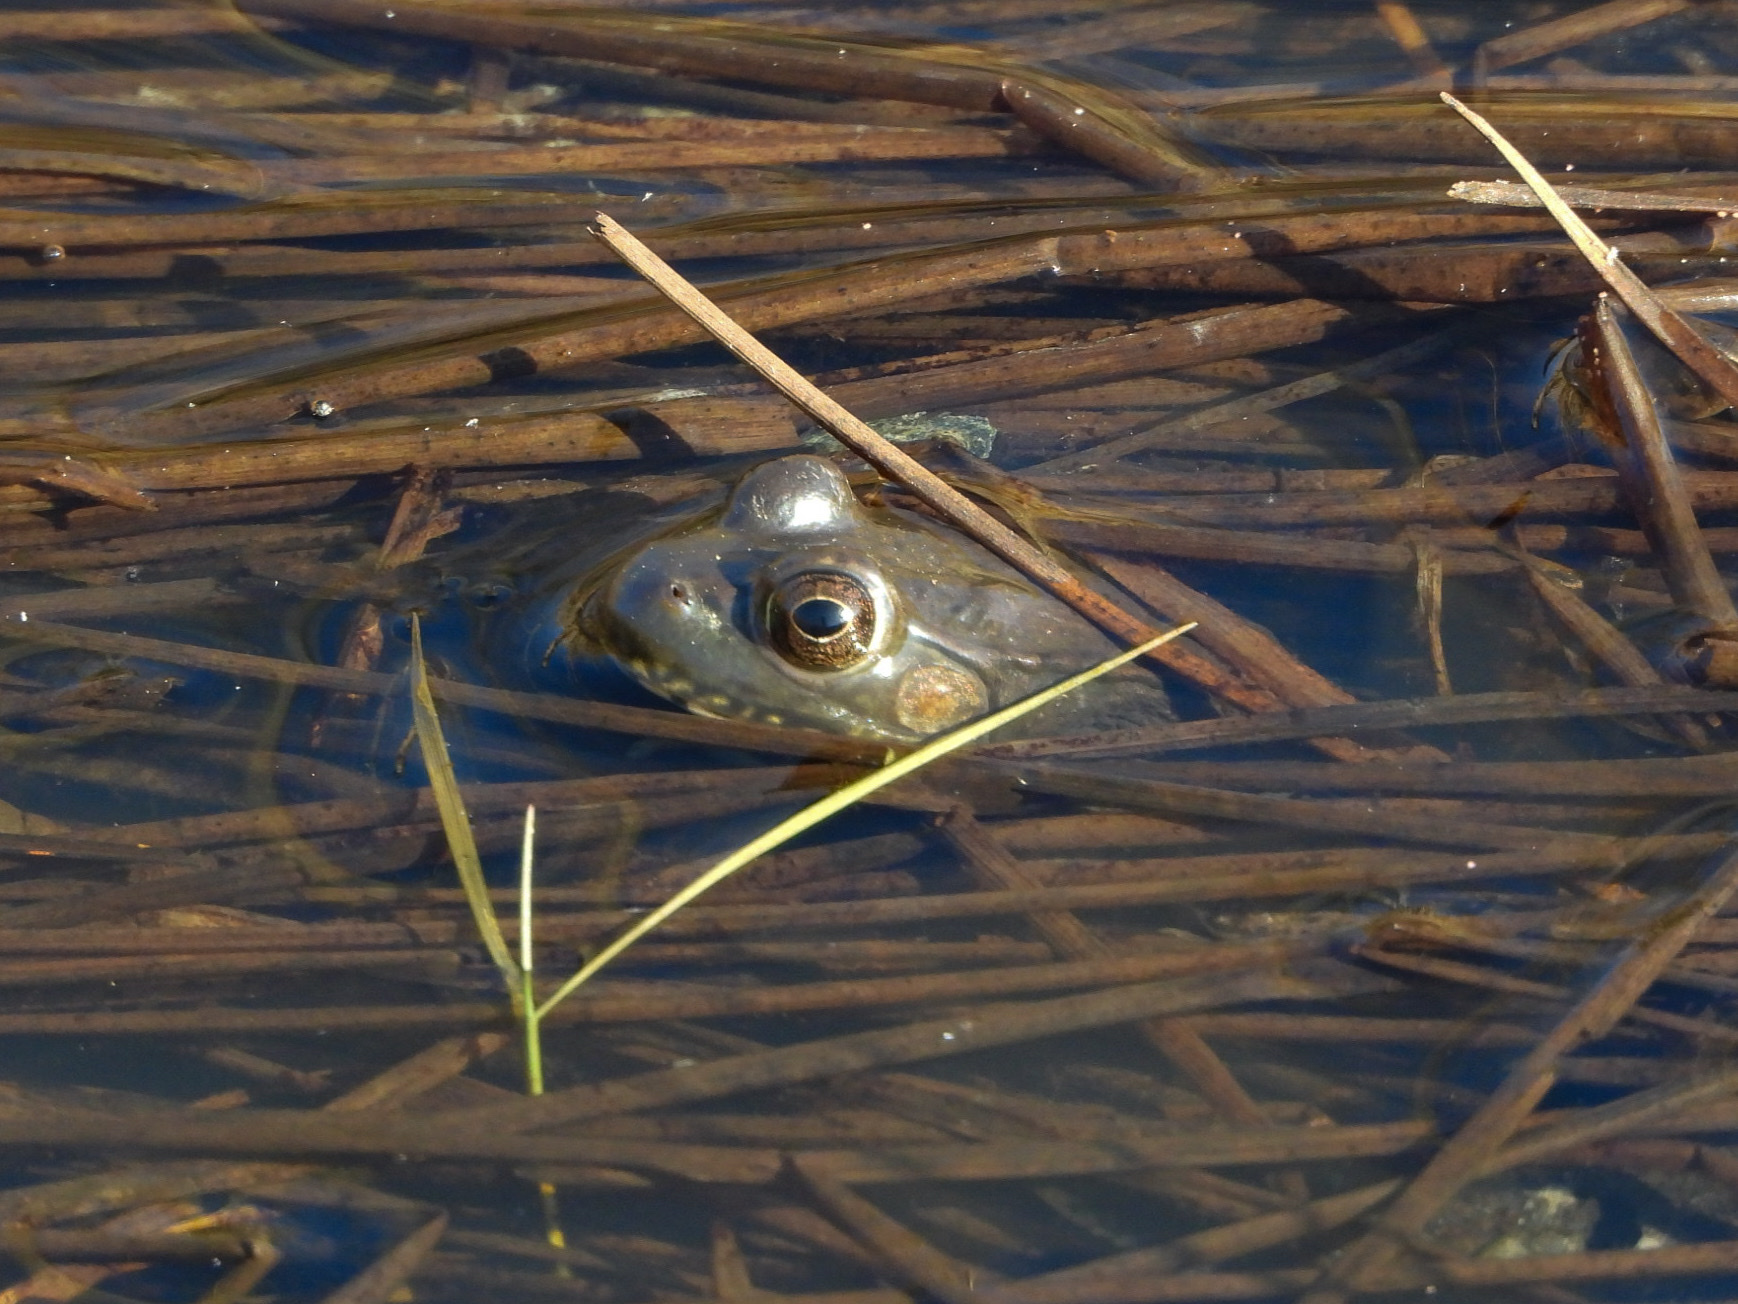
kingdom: Animalia
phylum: Chordata
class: Amphibia
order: Anura
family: Ranidae
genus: Lithobates
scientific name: Lithobates clamitans
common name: Green frog
